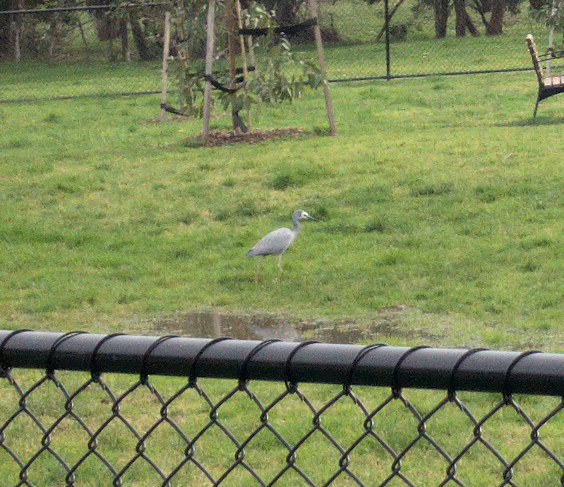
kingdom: Animalia
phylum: Chordata
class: Aves
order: Pelecaniformes
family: Ardeidae
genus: Egretta
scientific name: Egretta novaehollandiae
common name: White-faced heron
